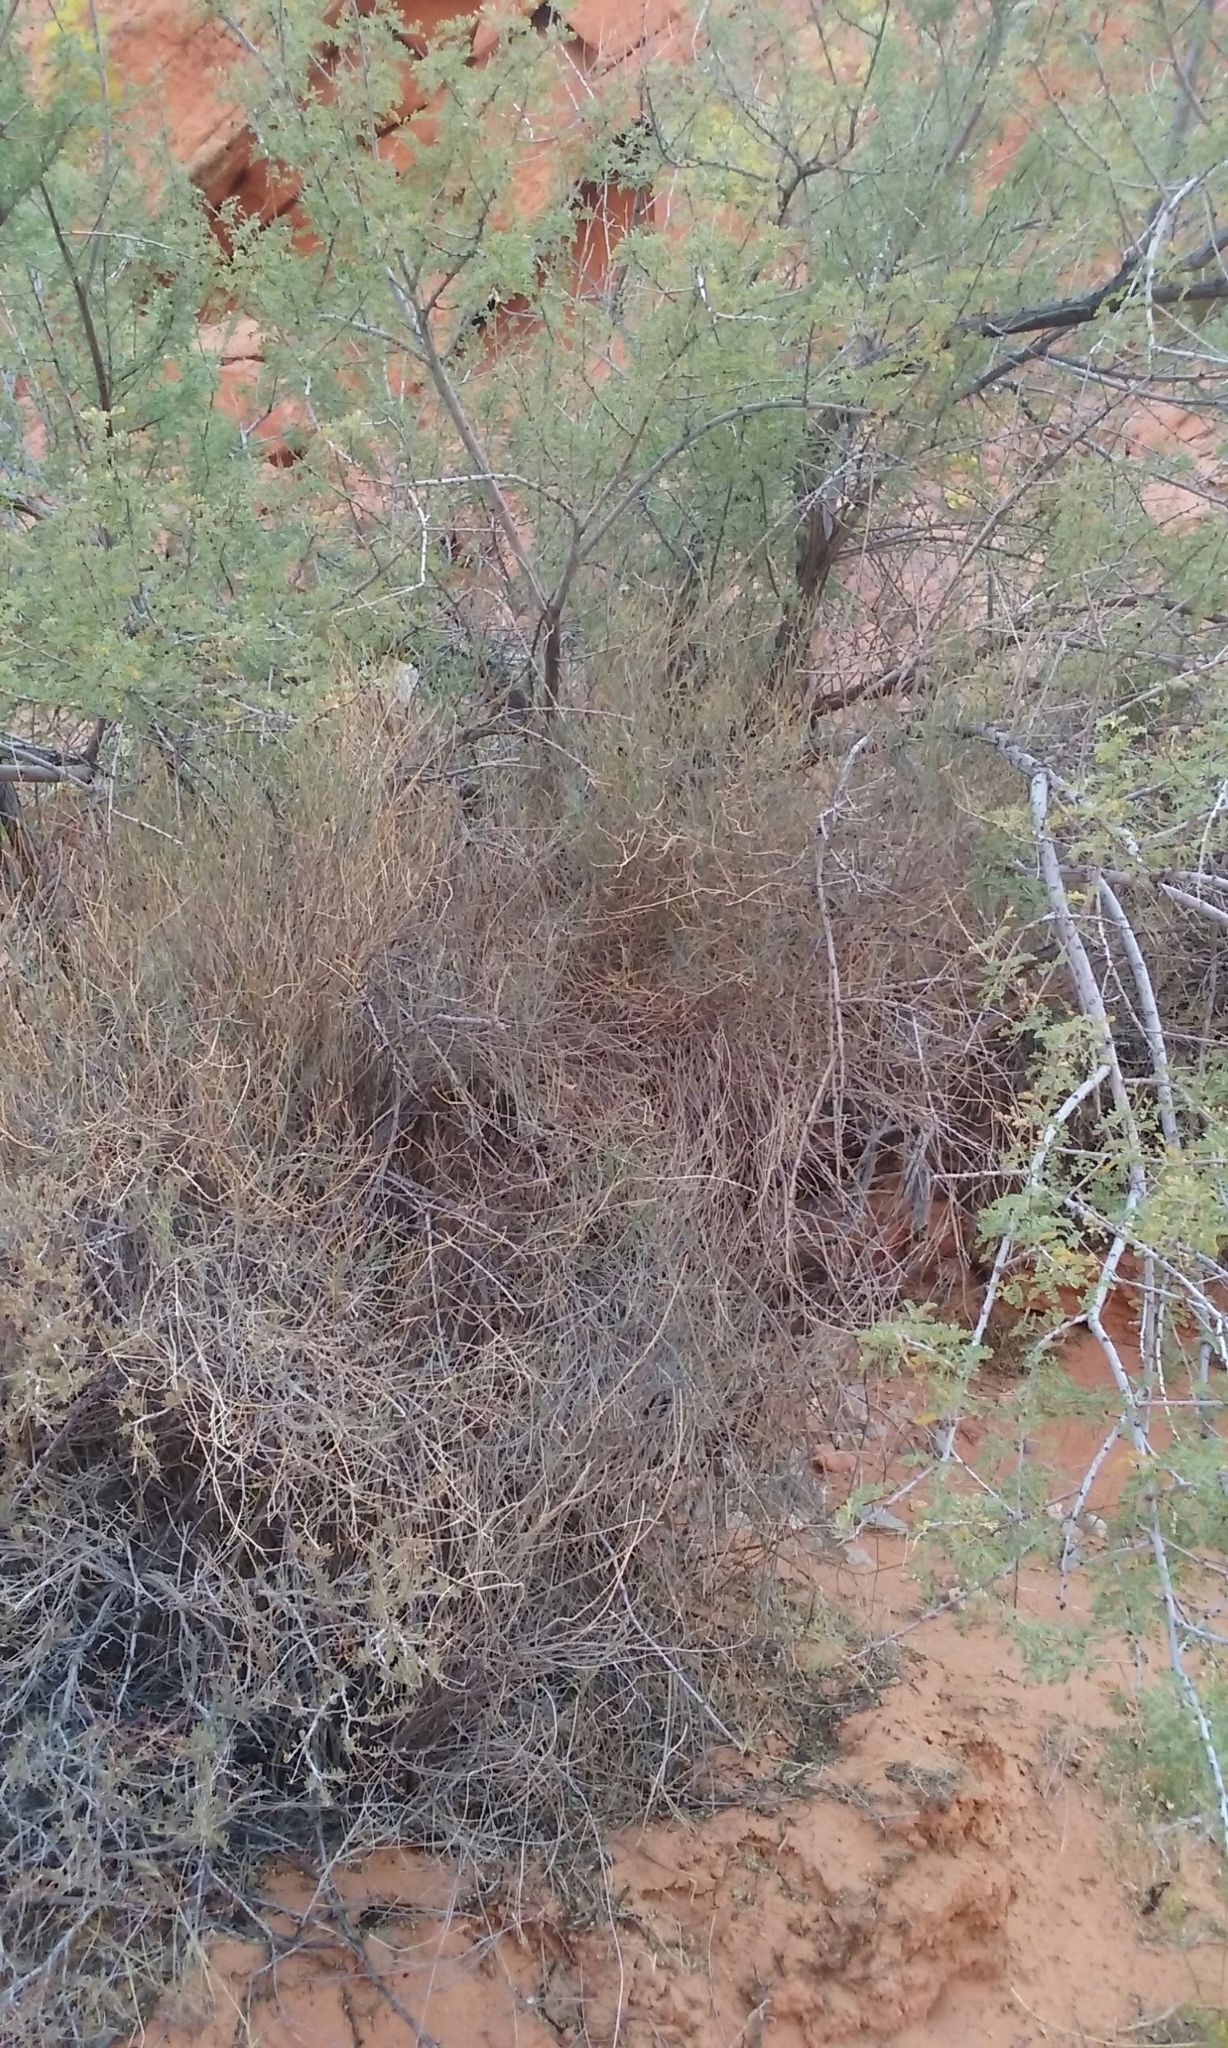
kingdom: Plantae
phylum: Tracheophyta
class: Magnoliopsida
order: Asterales
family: Asteraceae
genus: Porophyllum
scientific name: Porophyllum gracile
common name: Odora
